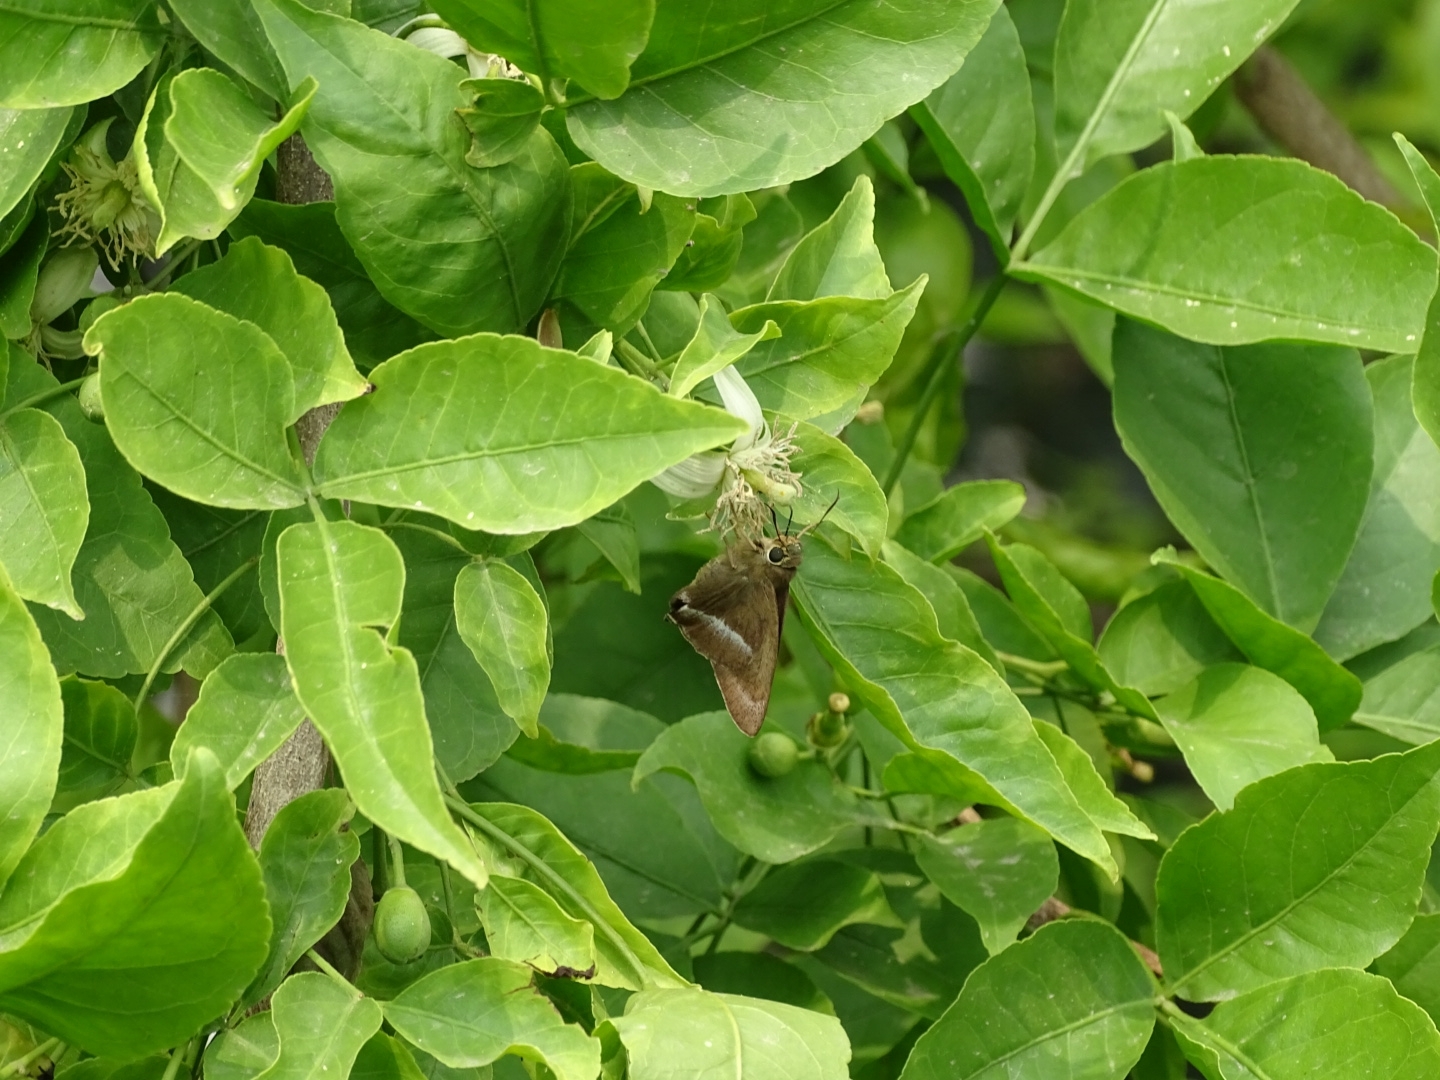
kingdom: Animalia
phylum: Arthropoda
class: Insecta
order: Lepidoptera
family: Hesperiidae
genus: Hasora
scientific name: Hasora chromus
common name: Common banded awl
